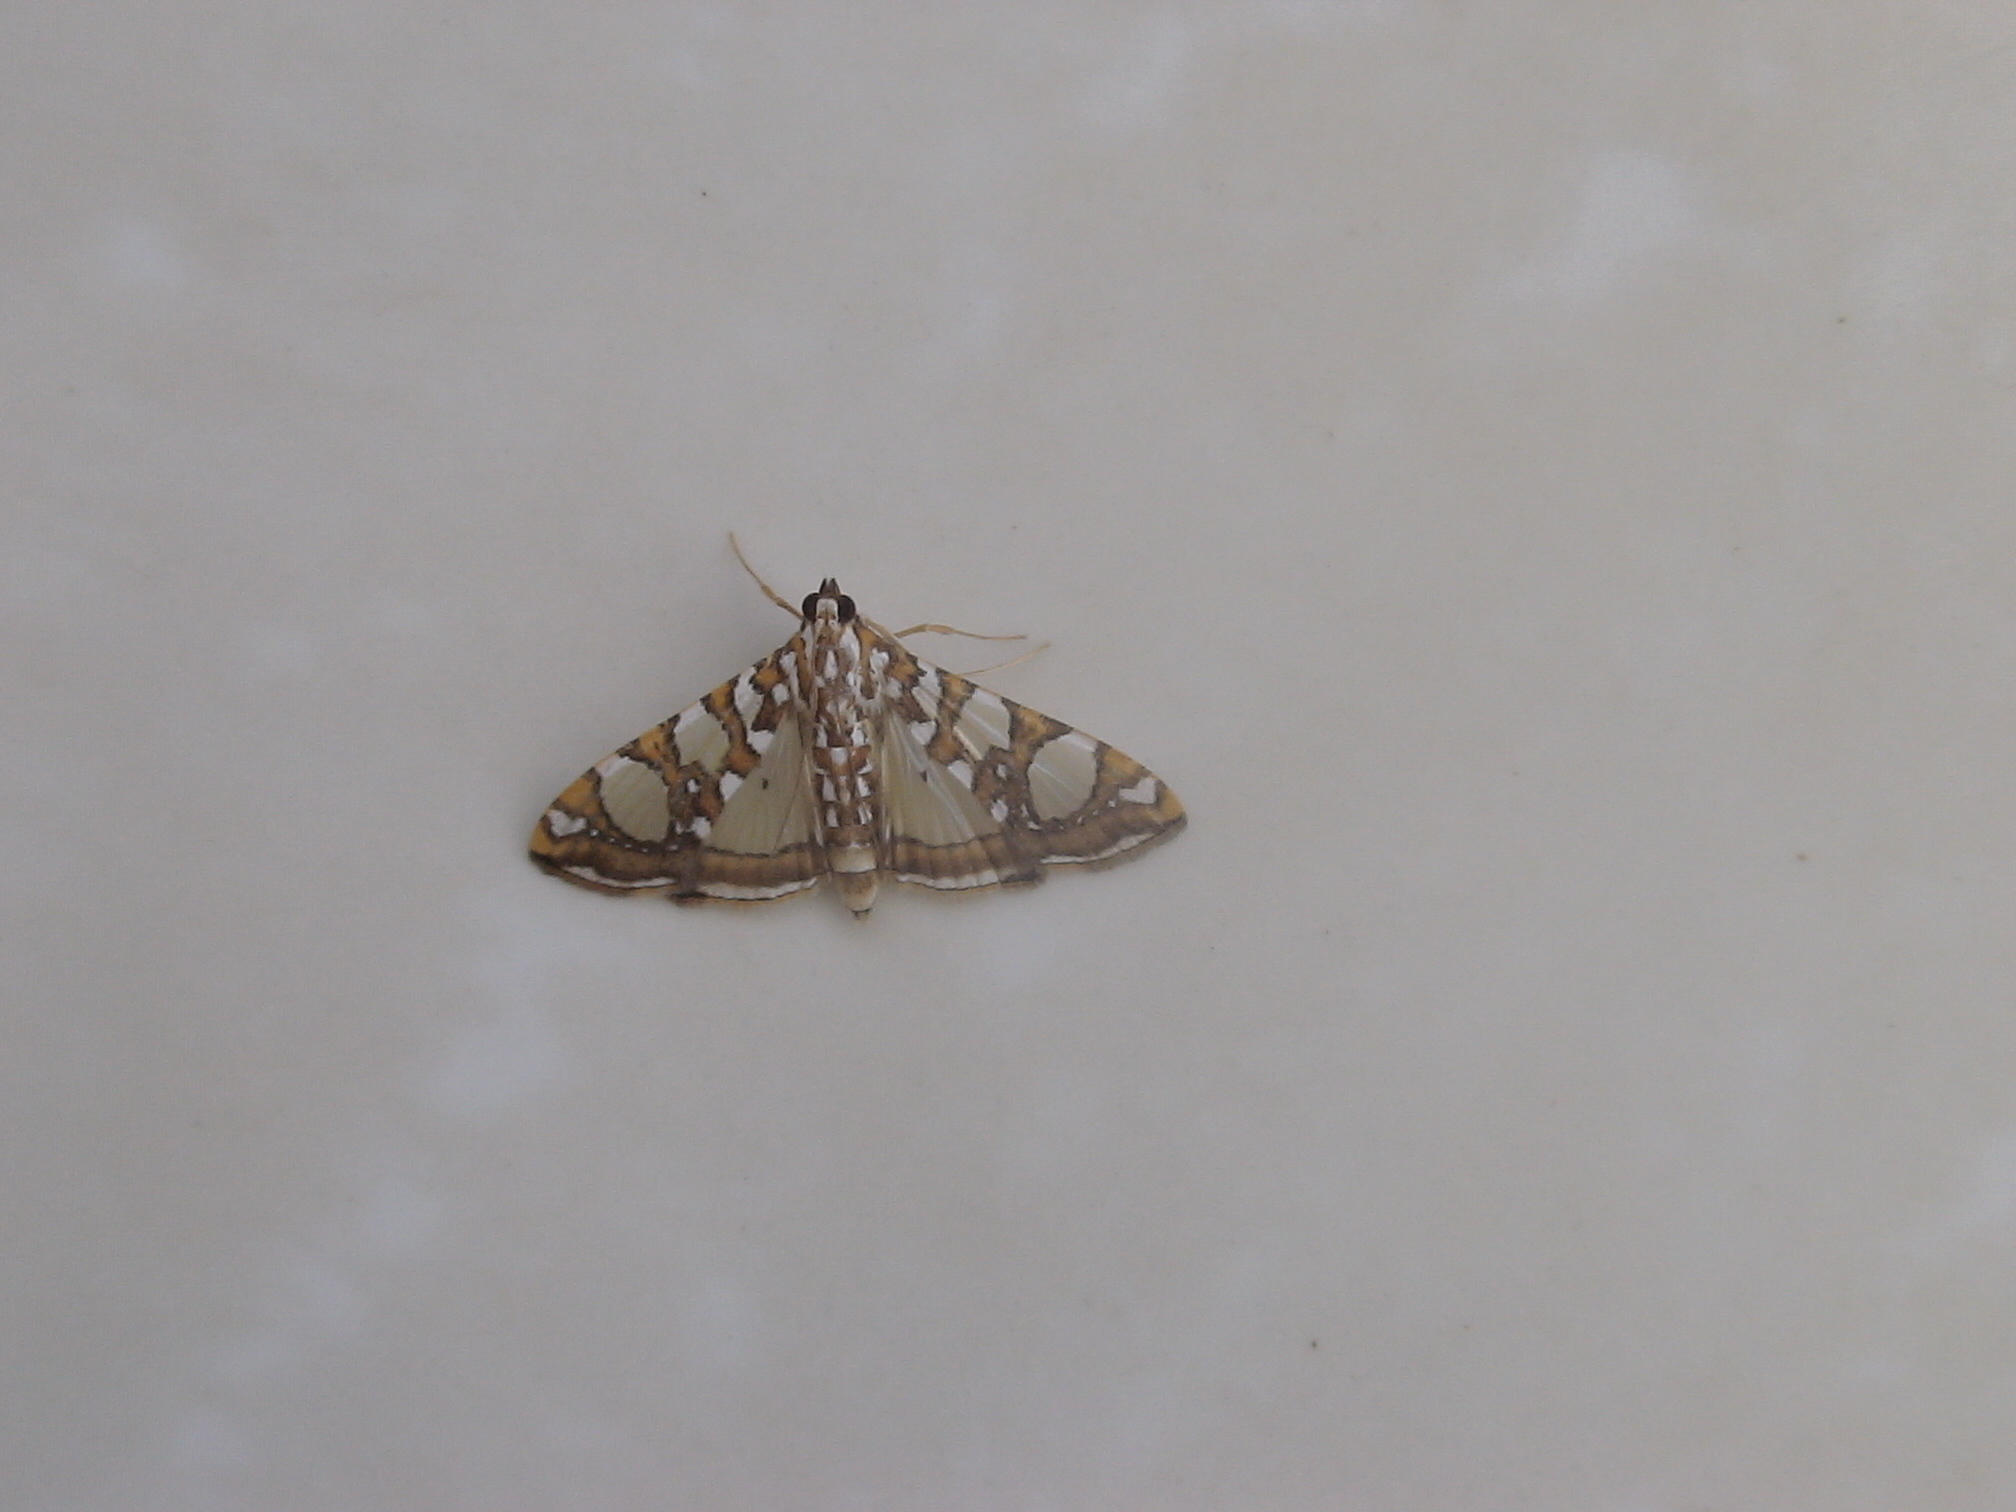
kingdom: Animalia
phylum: Arthropoda
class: Insecta
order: Lepidoptera
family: Crambidae
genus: Glyphodes
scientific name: Glyphodes sibillalis
